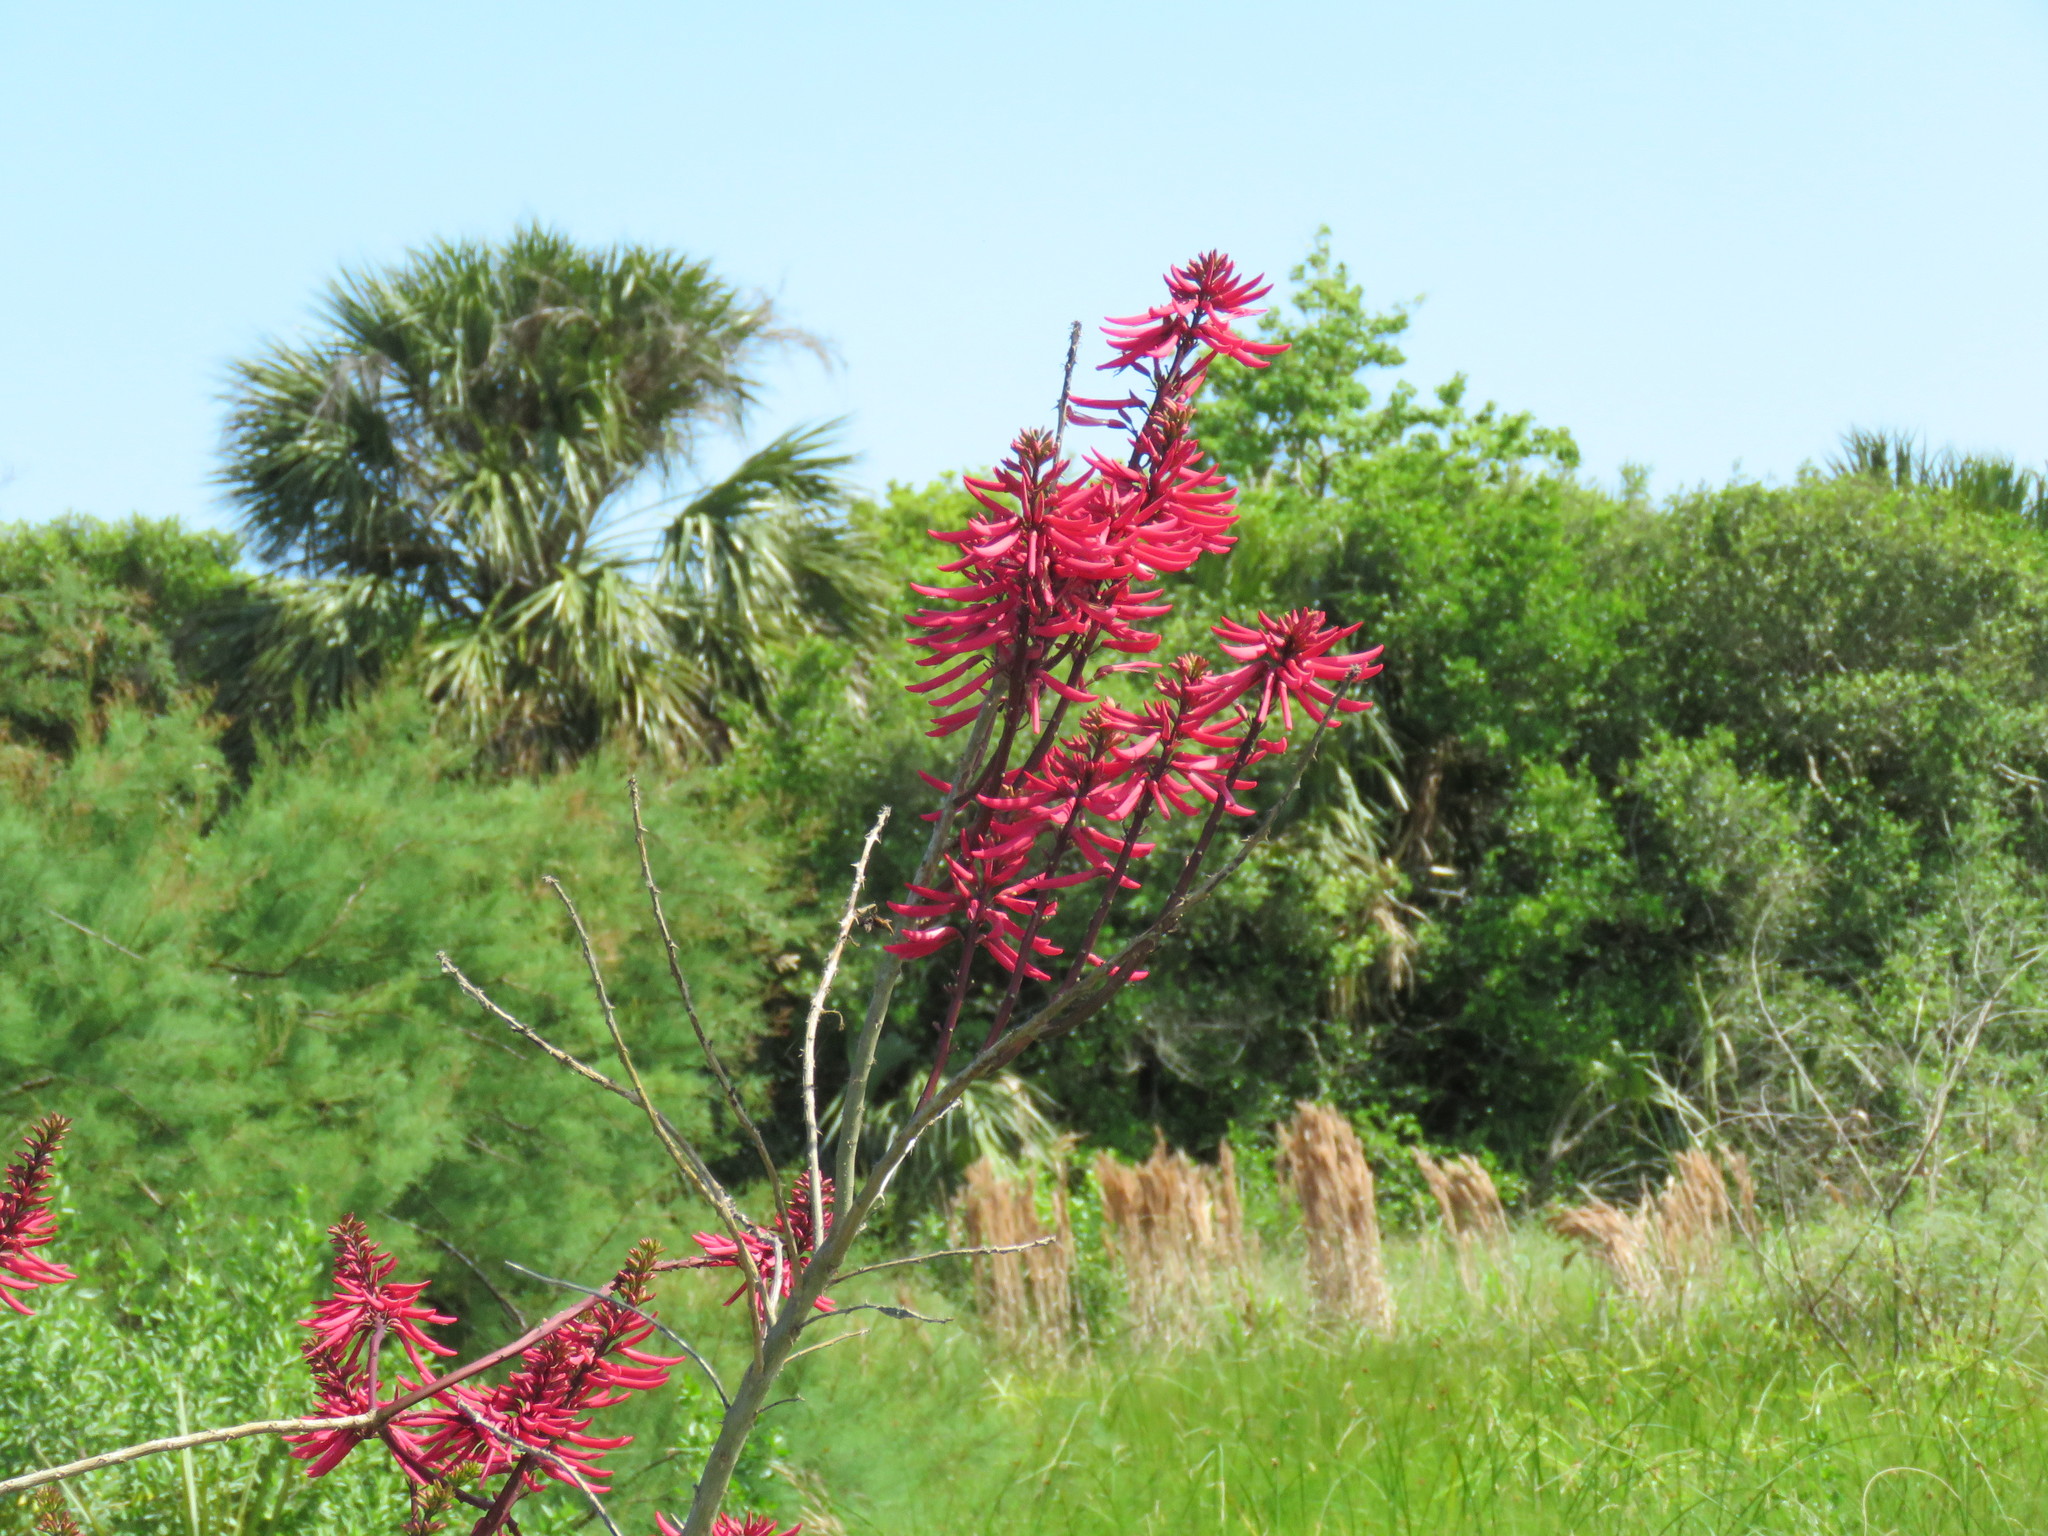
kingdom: Plantae
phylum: Tracheophyta
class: Magnoliopsida
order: Fabales
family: Fabaceae
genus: Erythrina
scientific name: Erythrina herbacea
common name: Coral-bean
